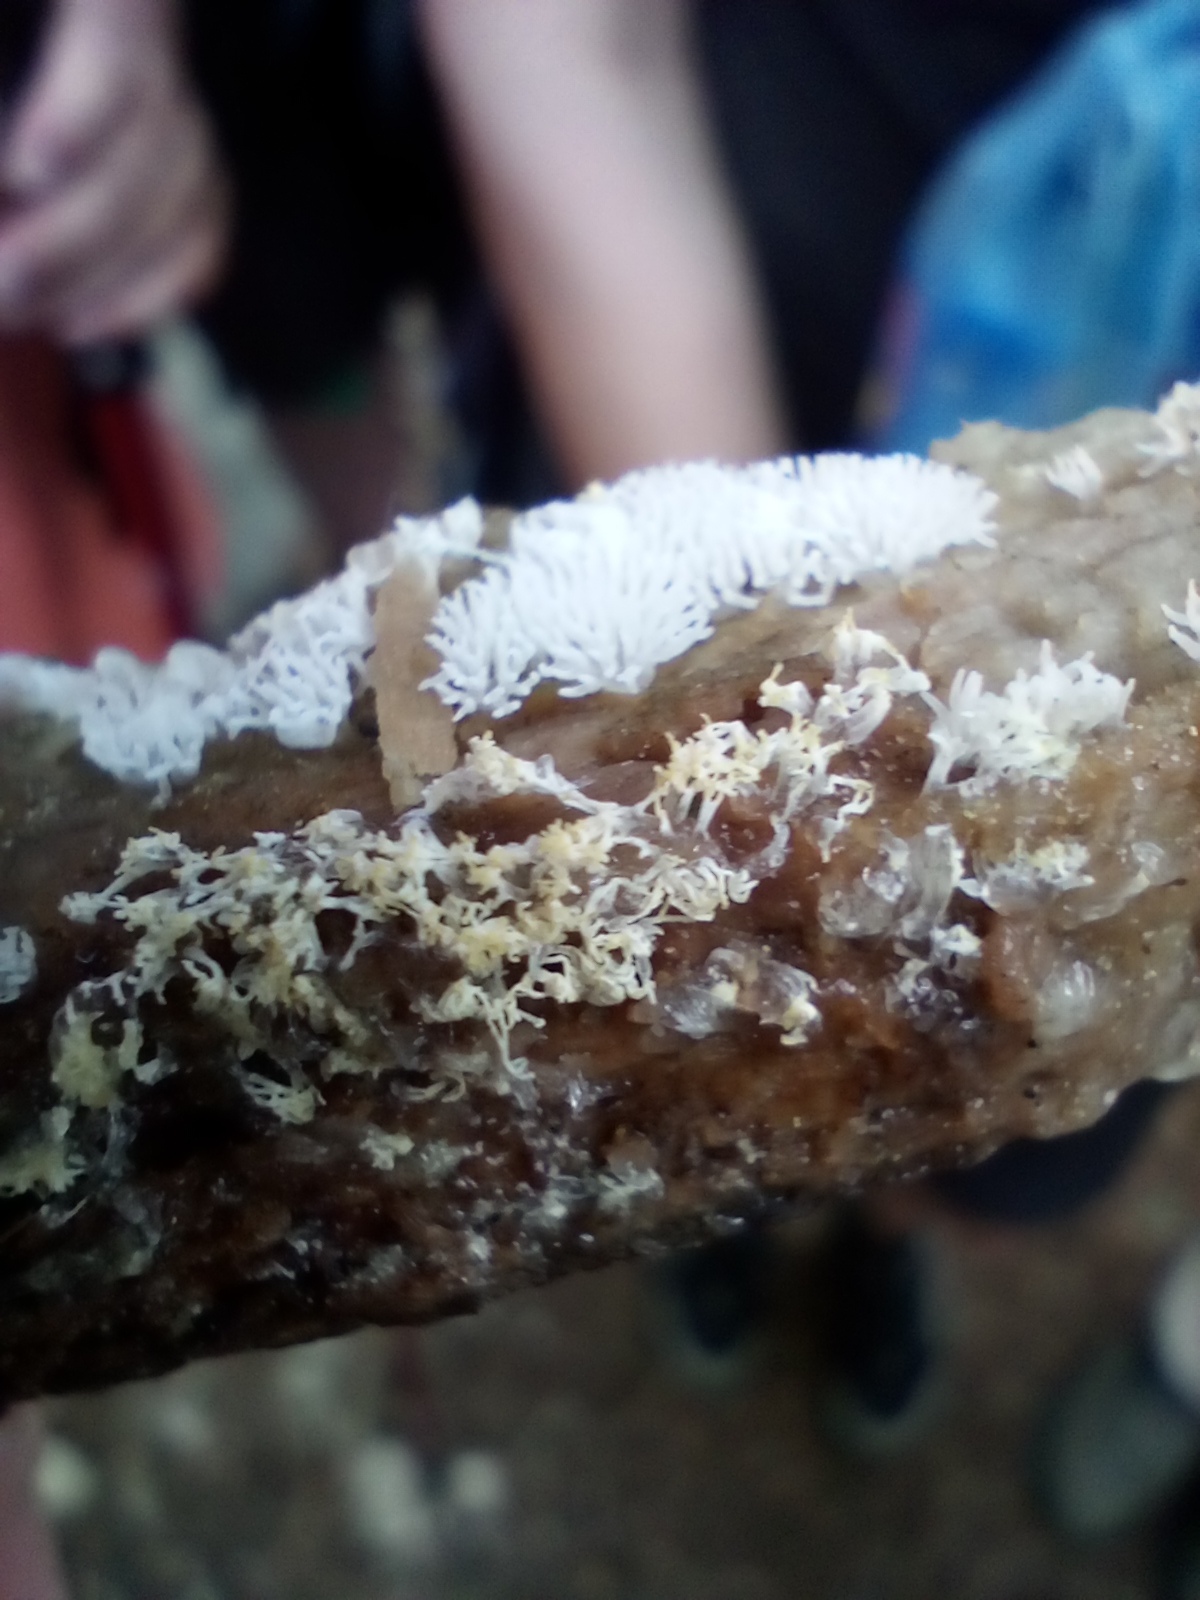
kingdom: Protozoa
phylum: Mycetozoa
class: Protosteliomycetes
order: Ceratiomyxales
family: Ceratiomyxaceae
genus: Ceratiomyxa
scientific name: Ceratiomyxa fruticulosa
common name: Honeycomb coral slime mold
